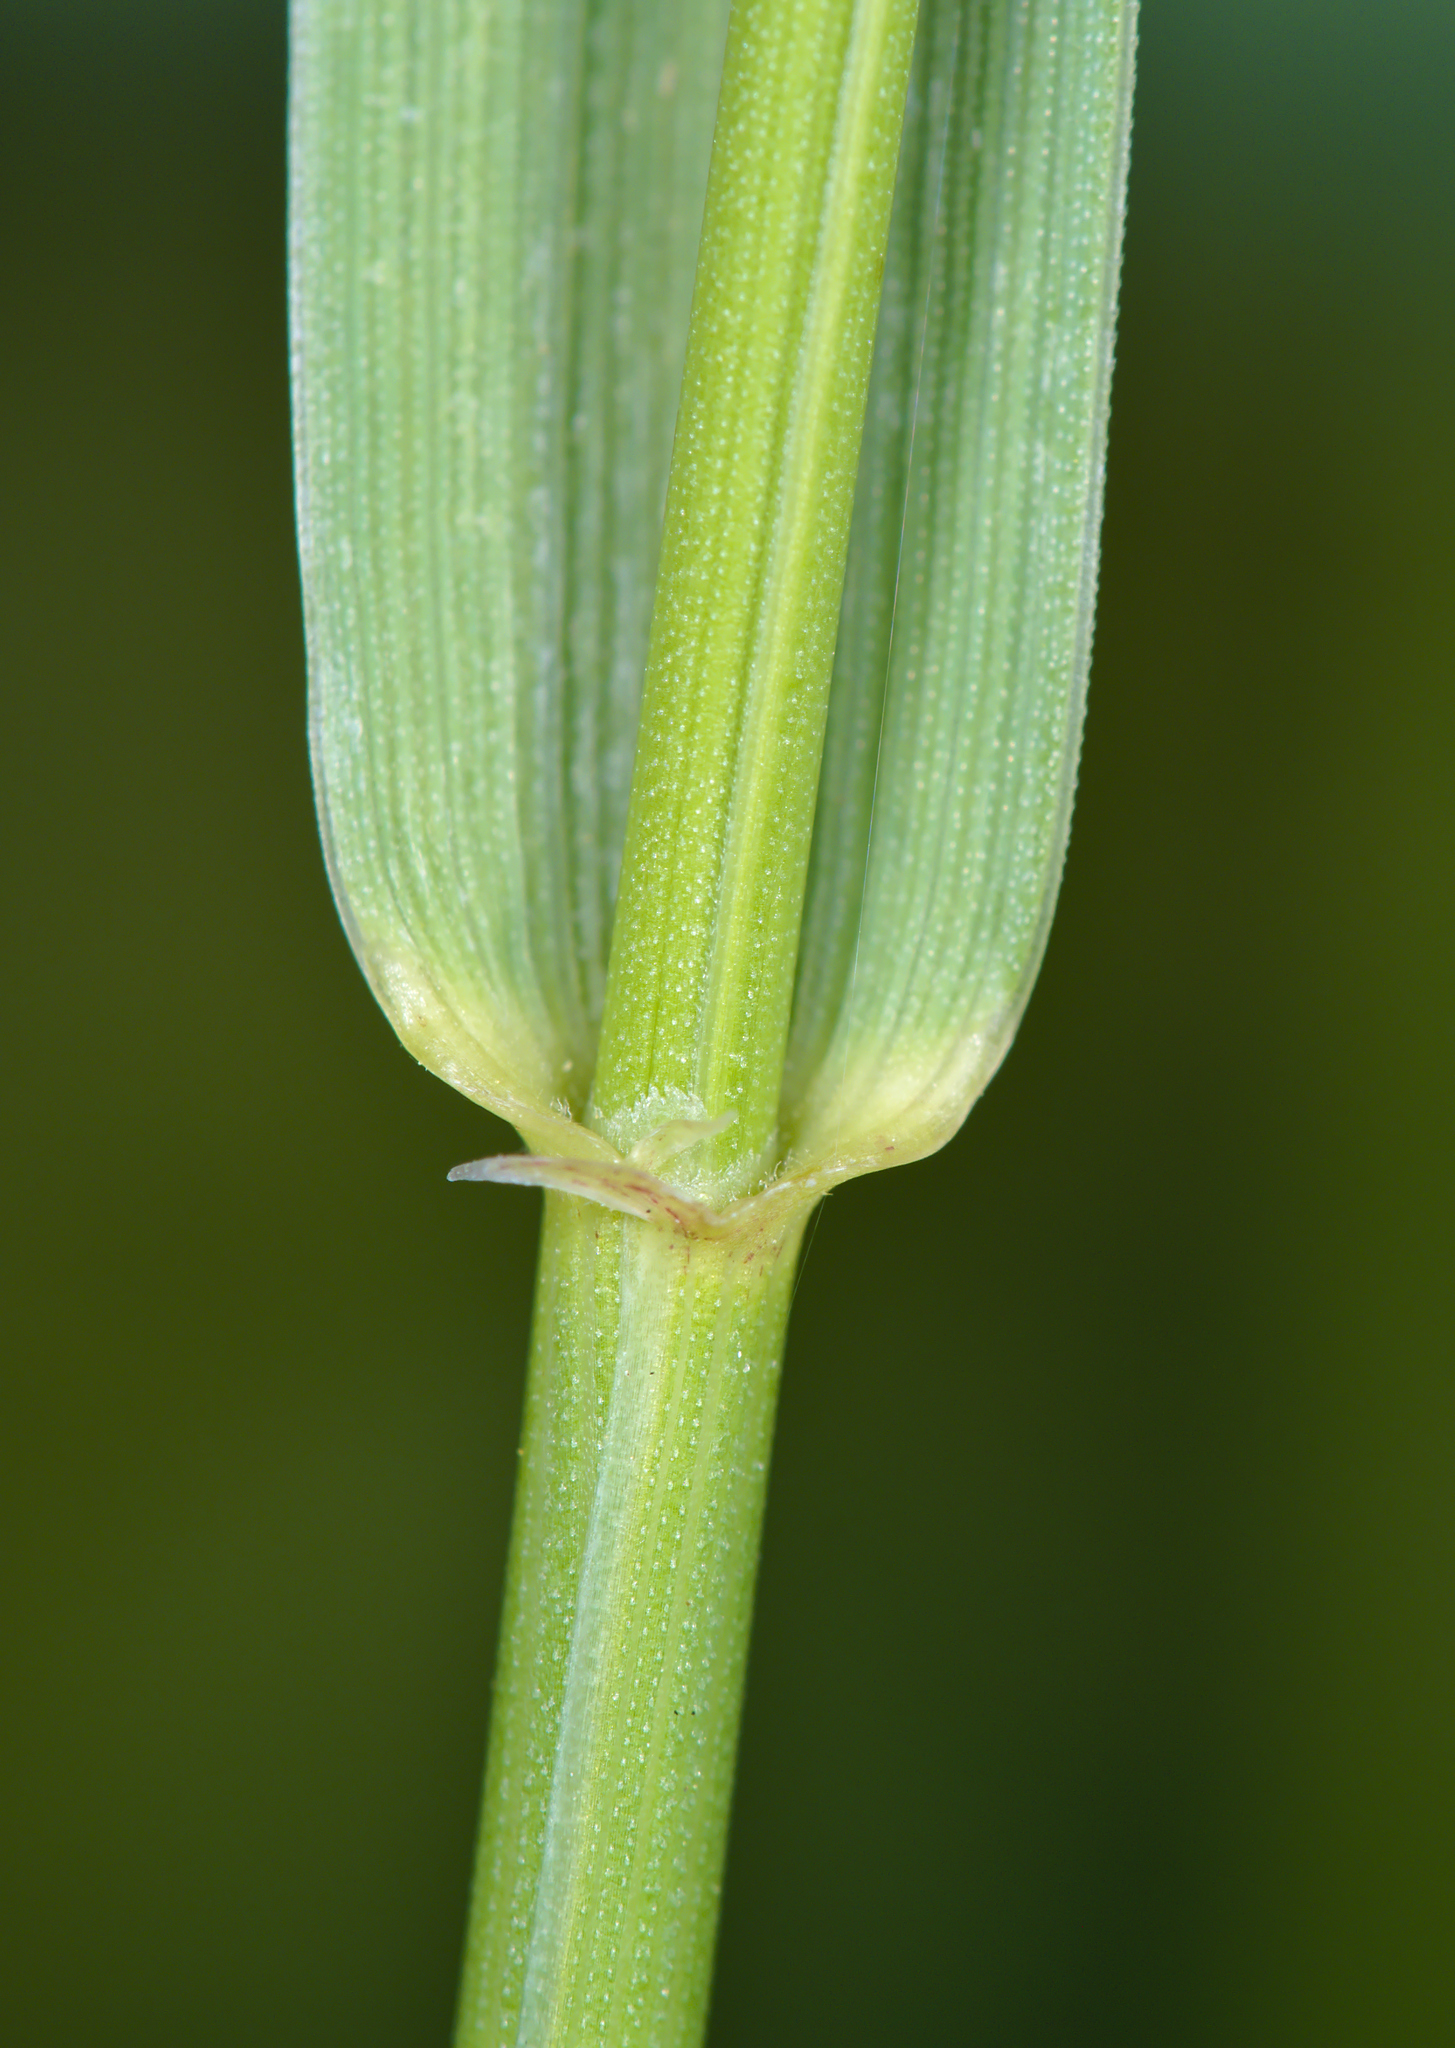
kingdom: Plantae
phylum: Tracheophyta
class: Liliopsida
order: Poales
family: Poaceae
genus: Elymus
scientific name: Elymus repens
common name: Quackgrass
